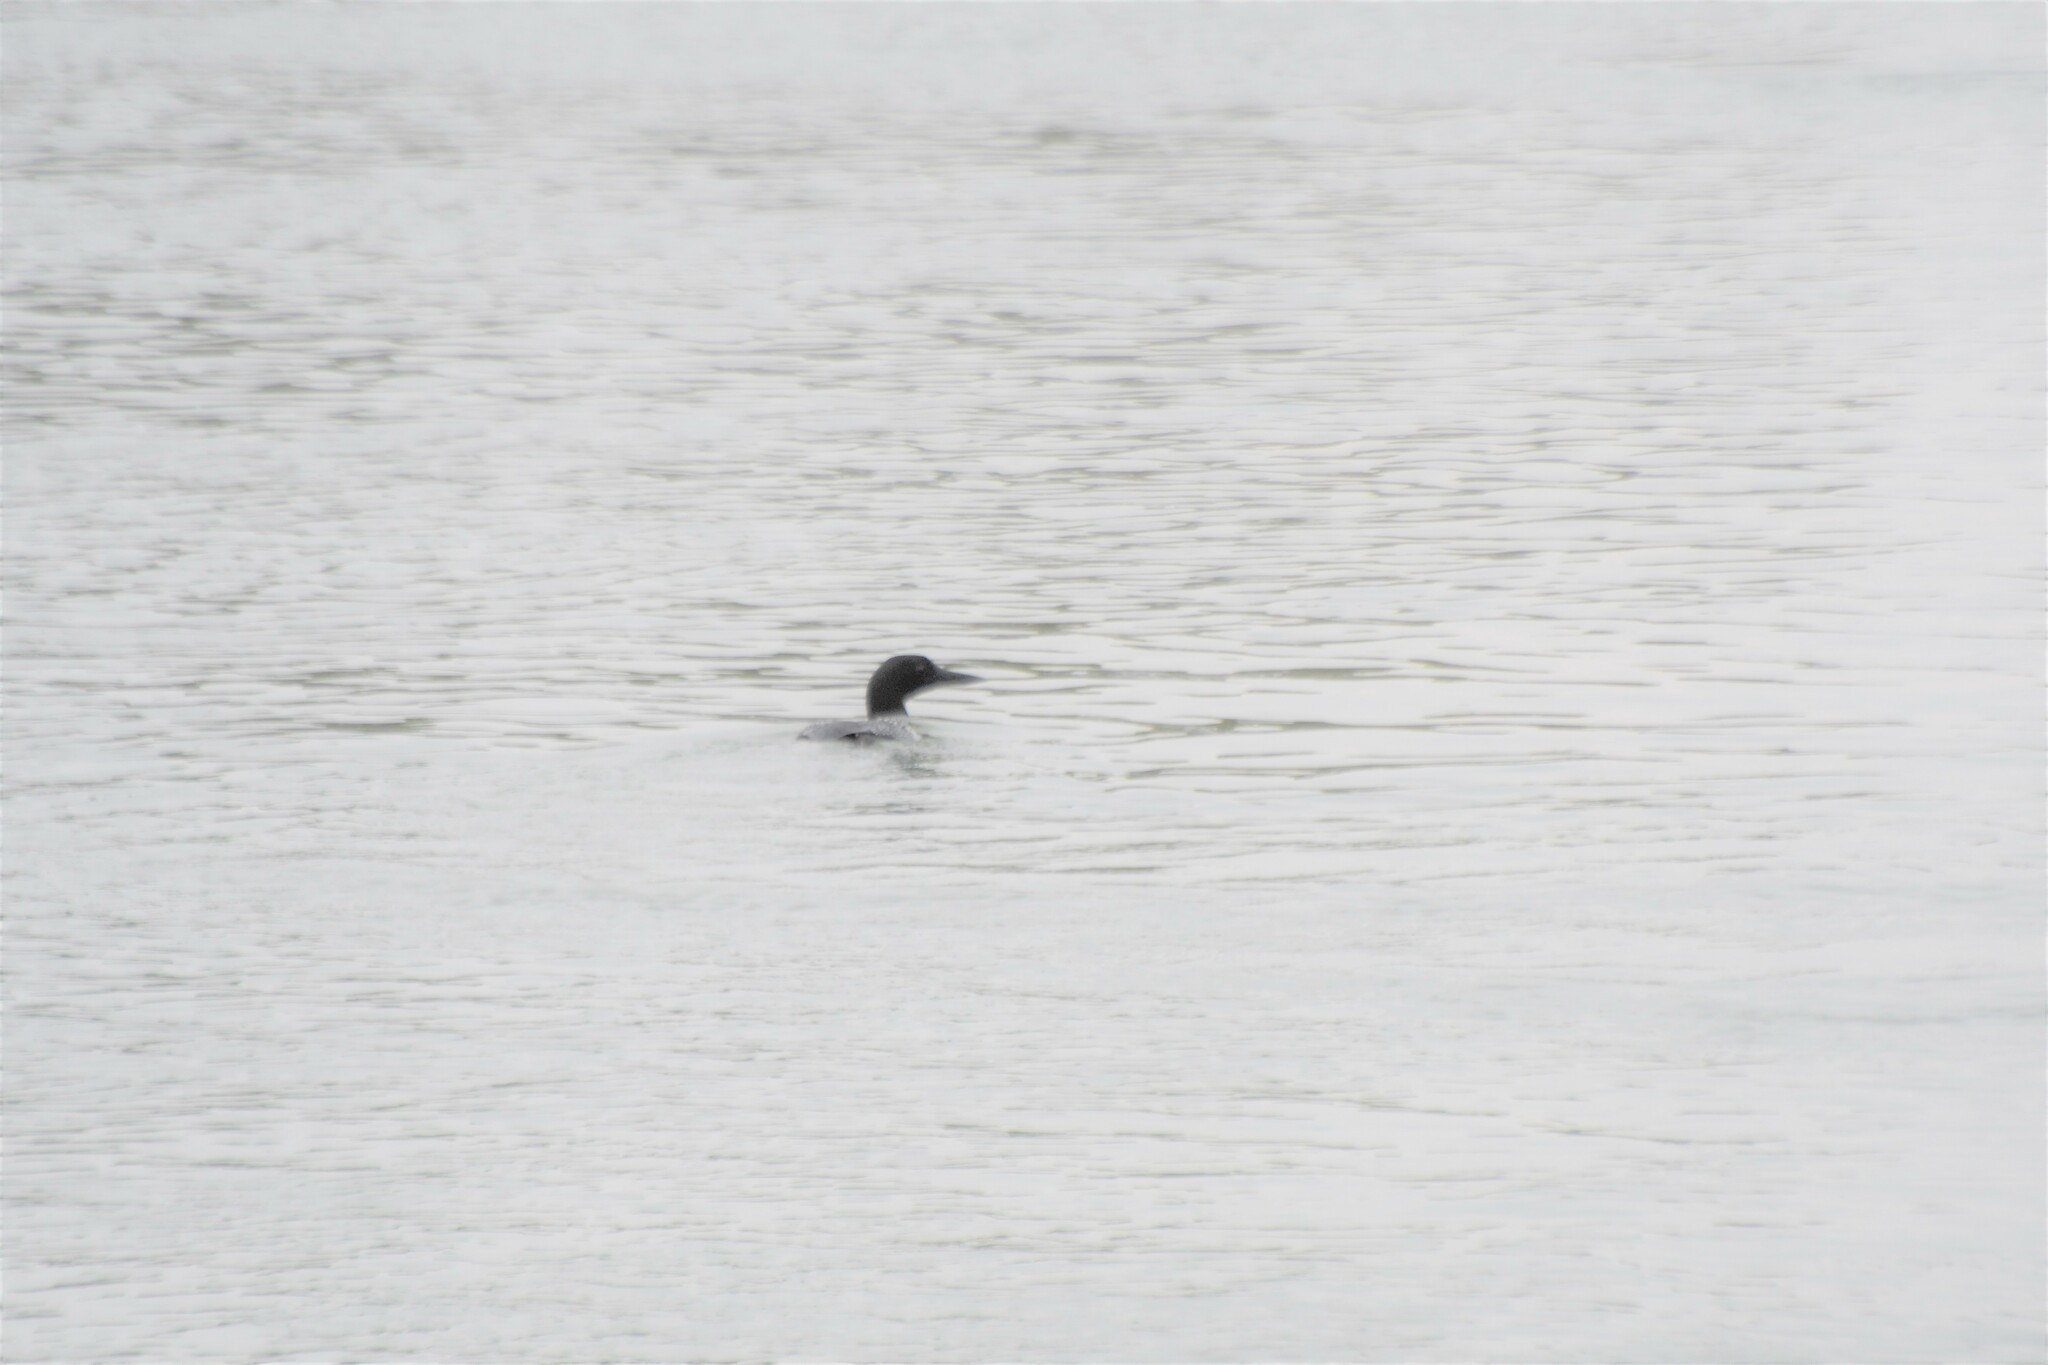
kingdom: Animalia
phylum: Chordata
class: Aves
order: Gaviiformes
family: Gaviidae
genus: Gavia
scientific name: Gavia immer
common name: Common loon
